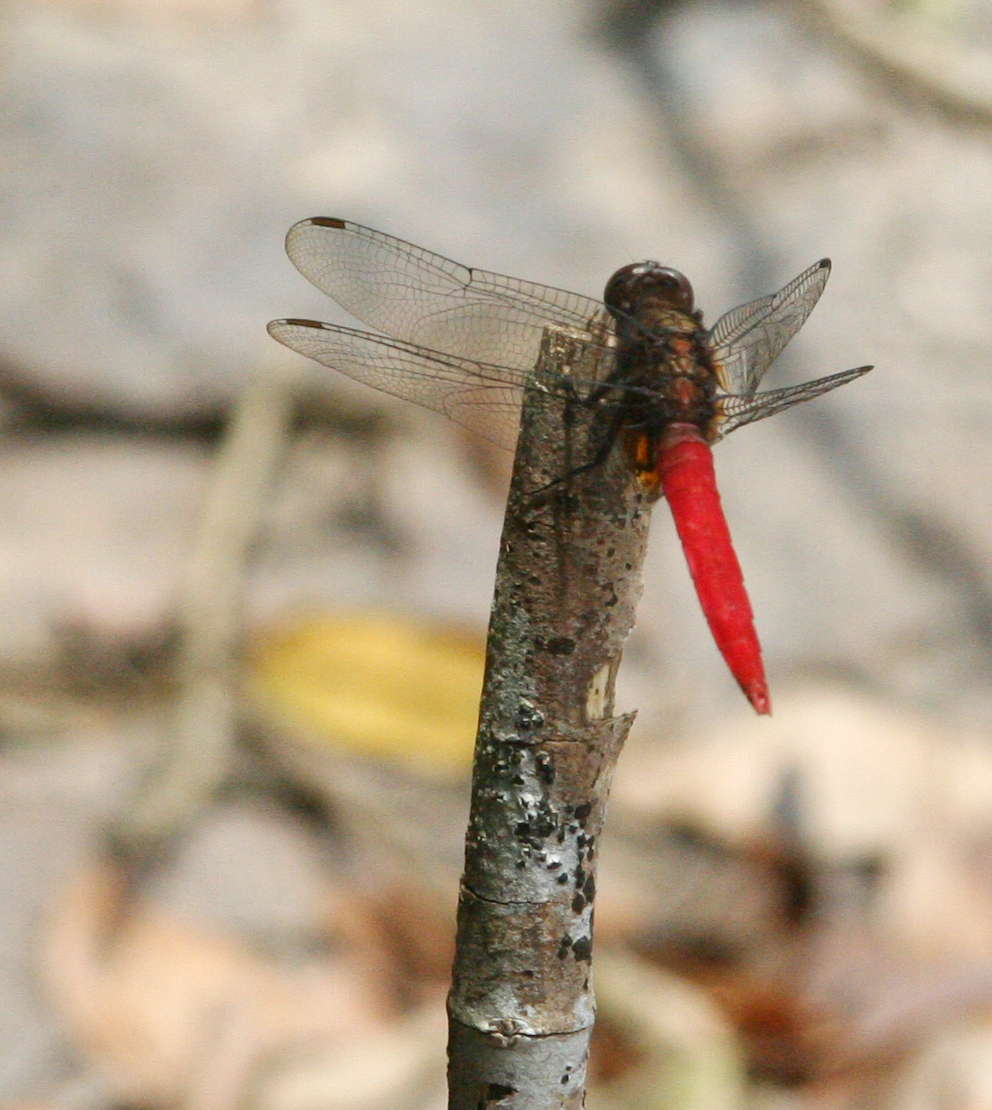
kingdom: Animalia
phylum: Arthropoda
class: Insecta
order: Odonata
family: Libellulidae
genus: Orthetrum
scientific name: Orthetrum chrysis
